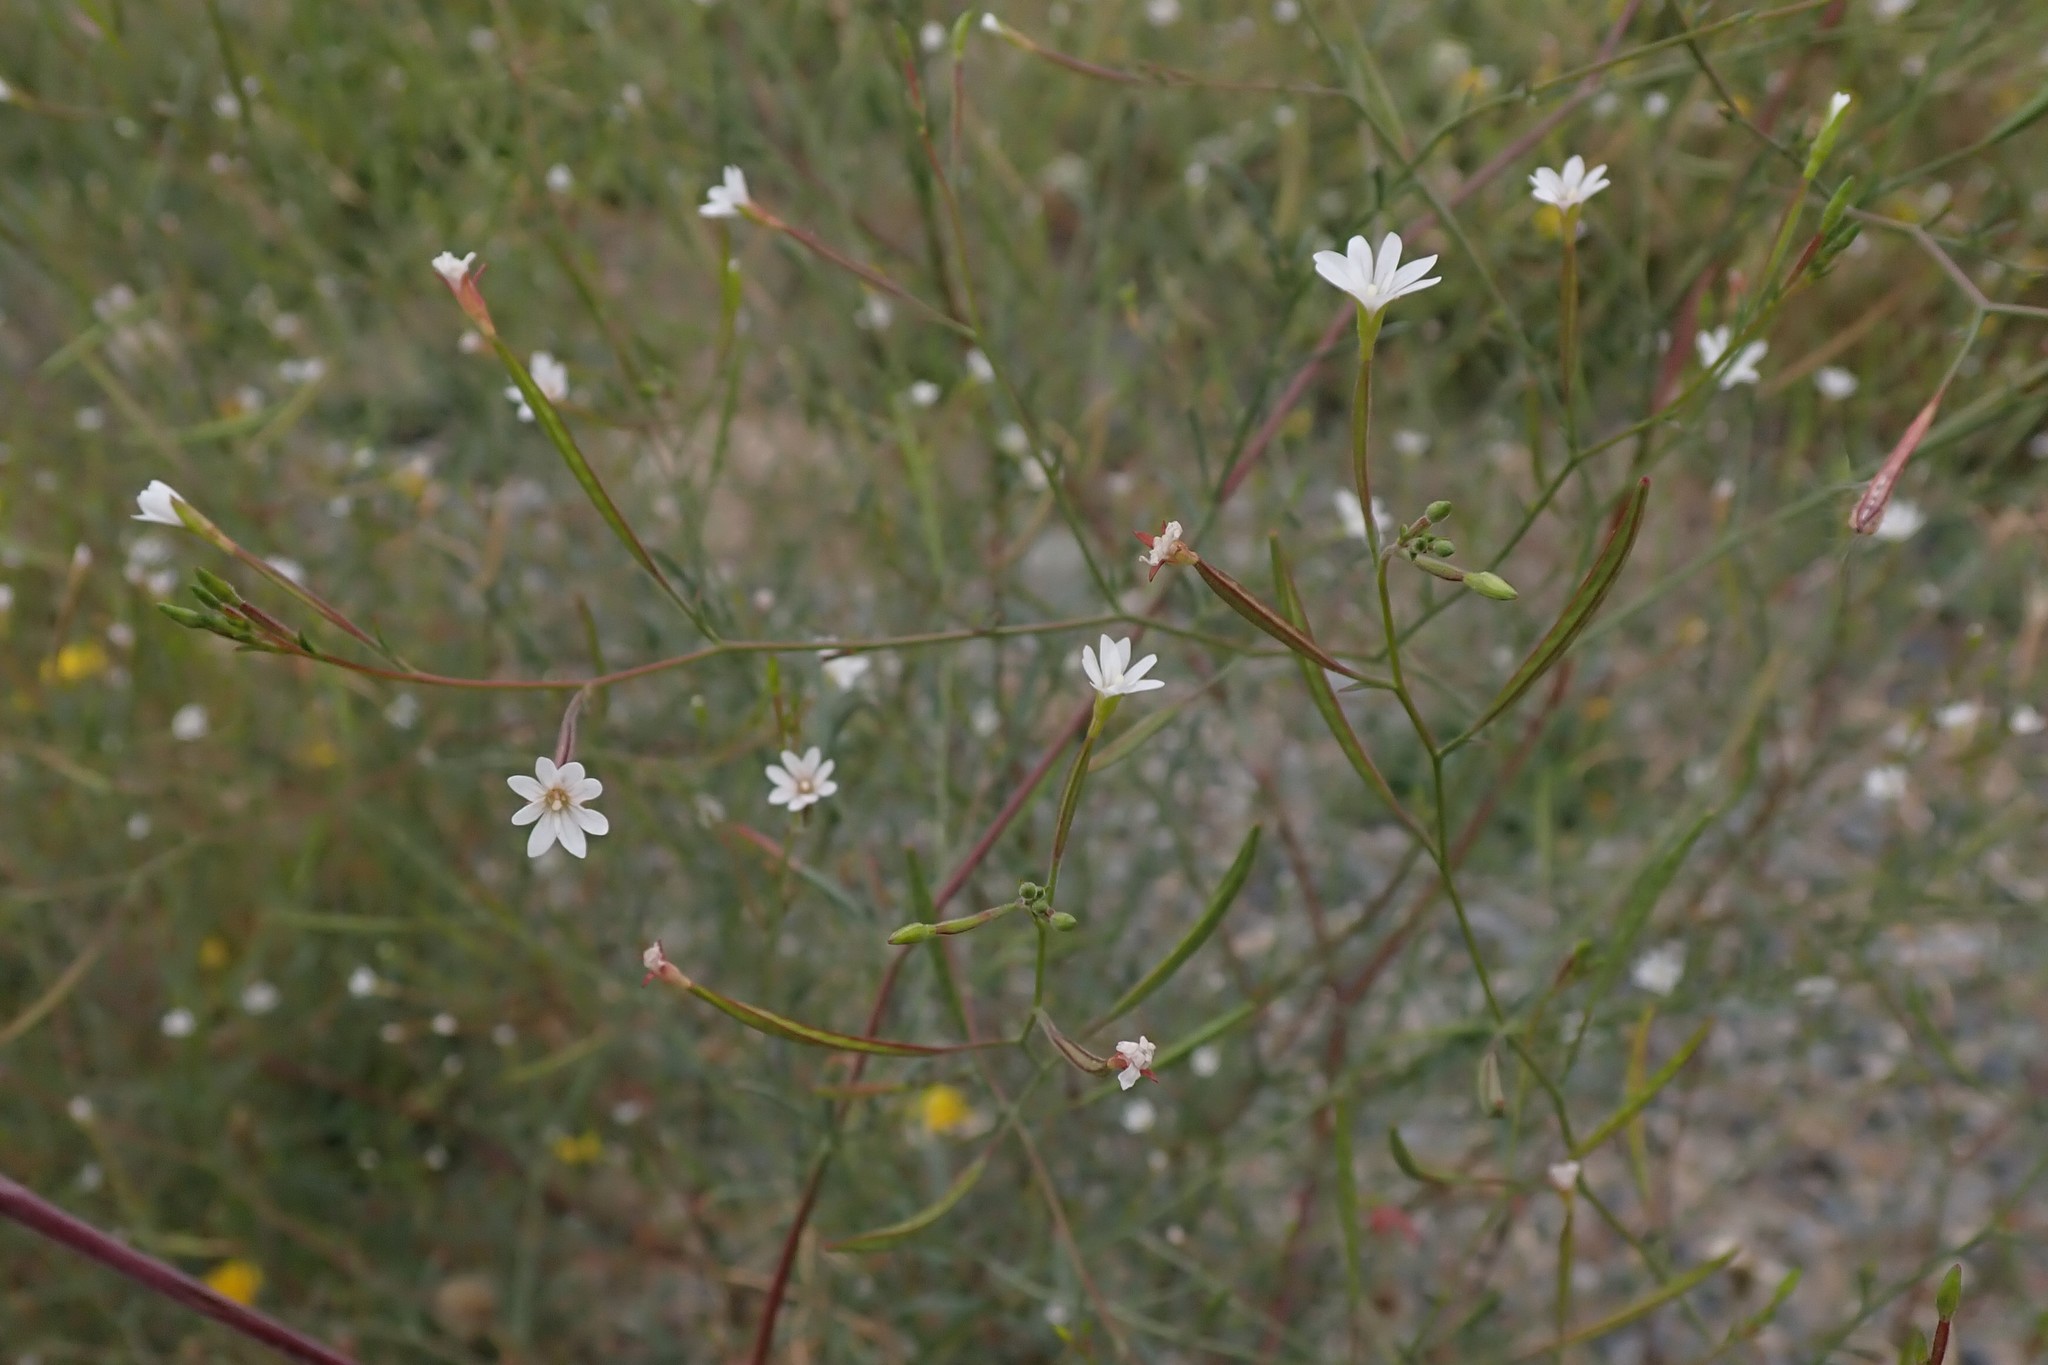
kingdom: Plantae
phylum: Tracheophyta
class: Magnoliopsida
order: Myrtales
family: Onagraceae
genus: Epilobium
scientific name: Epilobium brachycarpum
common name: Annual willowherb
